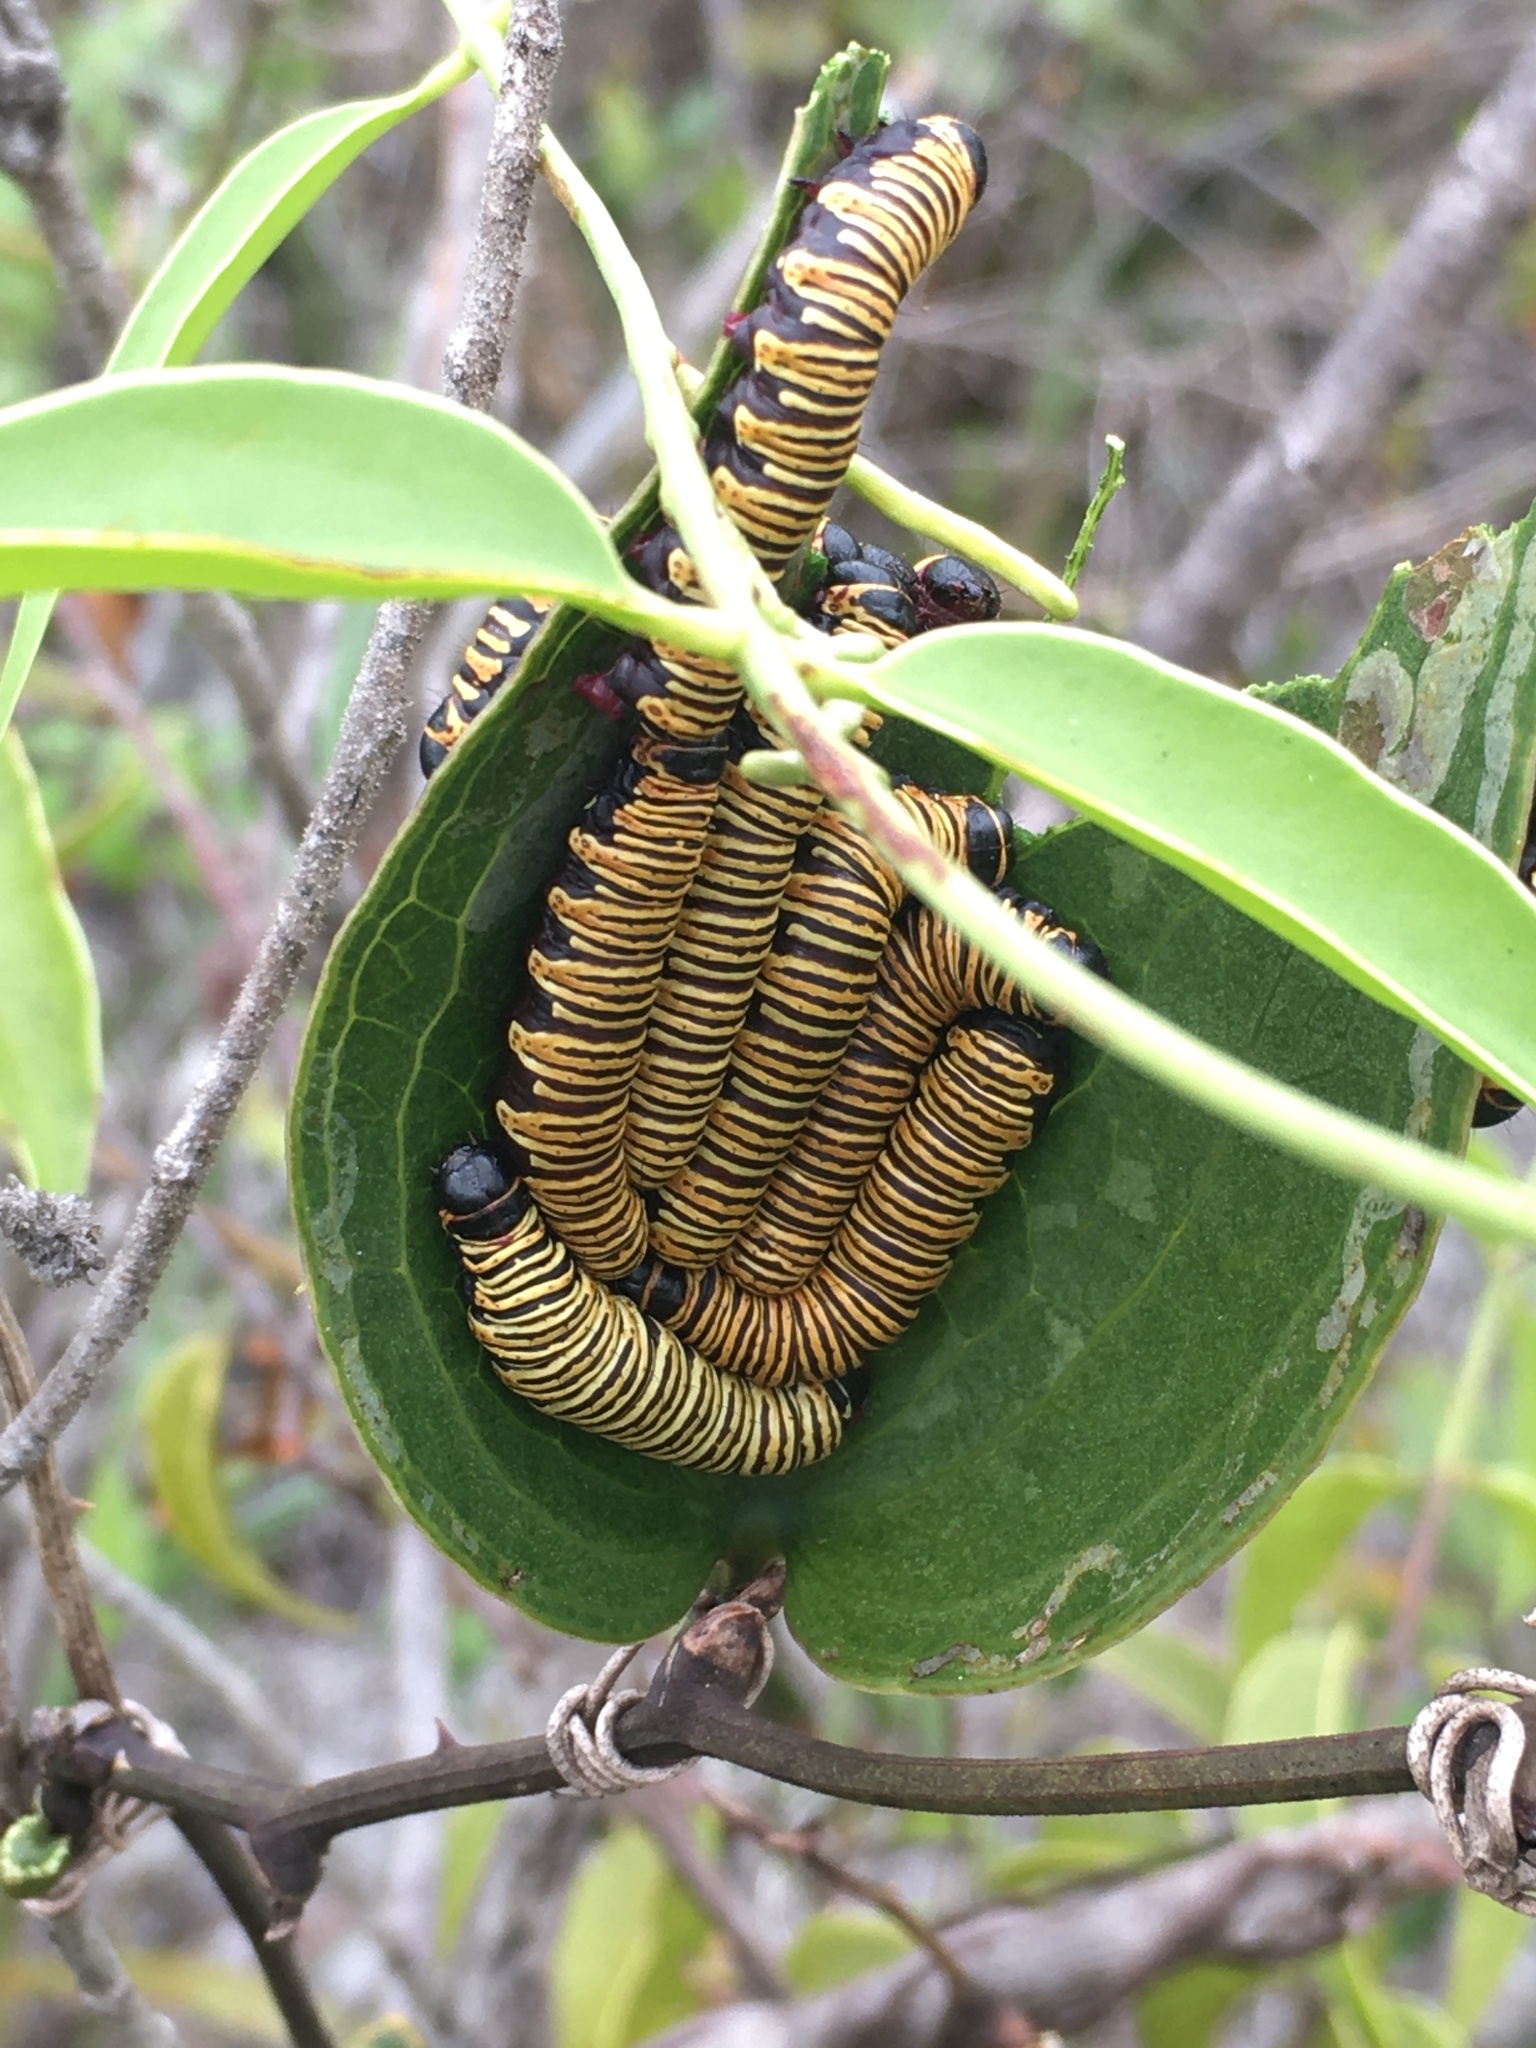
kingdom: Animalia
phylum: Arthropoda
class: Insecta
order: Lepidoptera
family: Erebidae
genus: Cabralia
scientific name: Cabralia Cromobergia teichii
